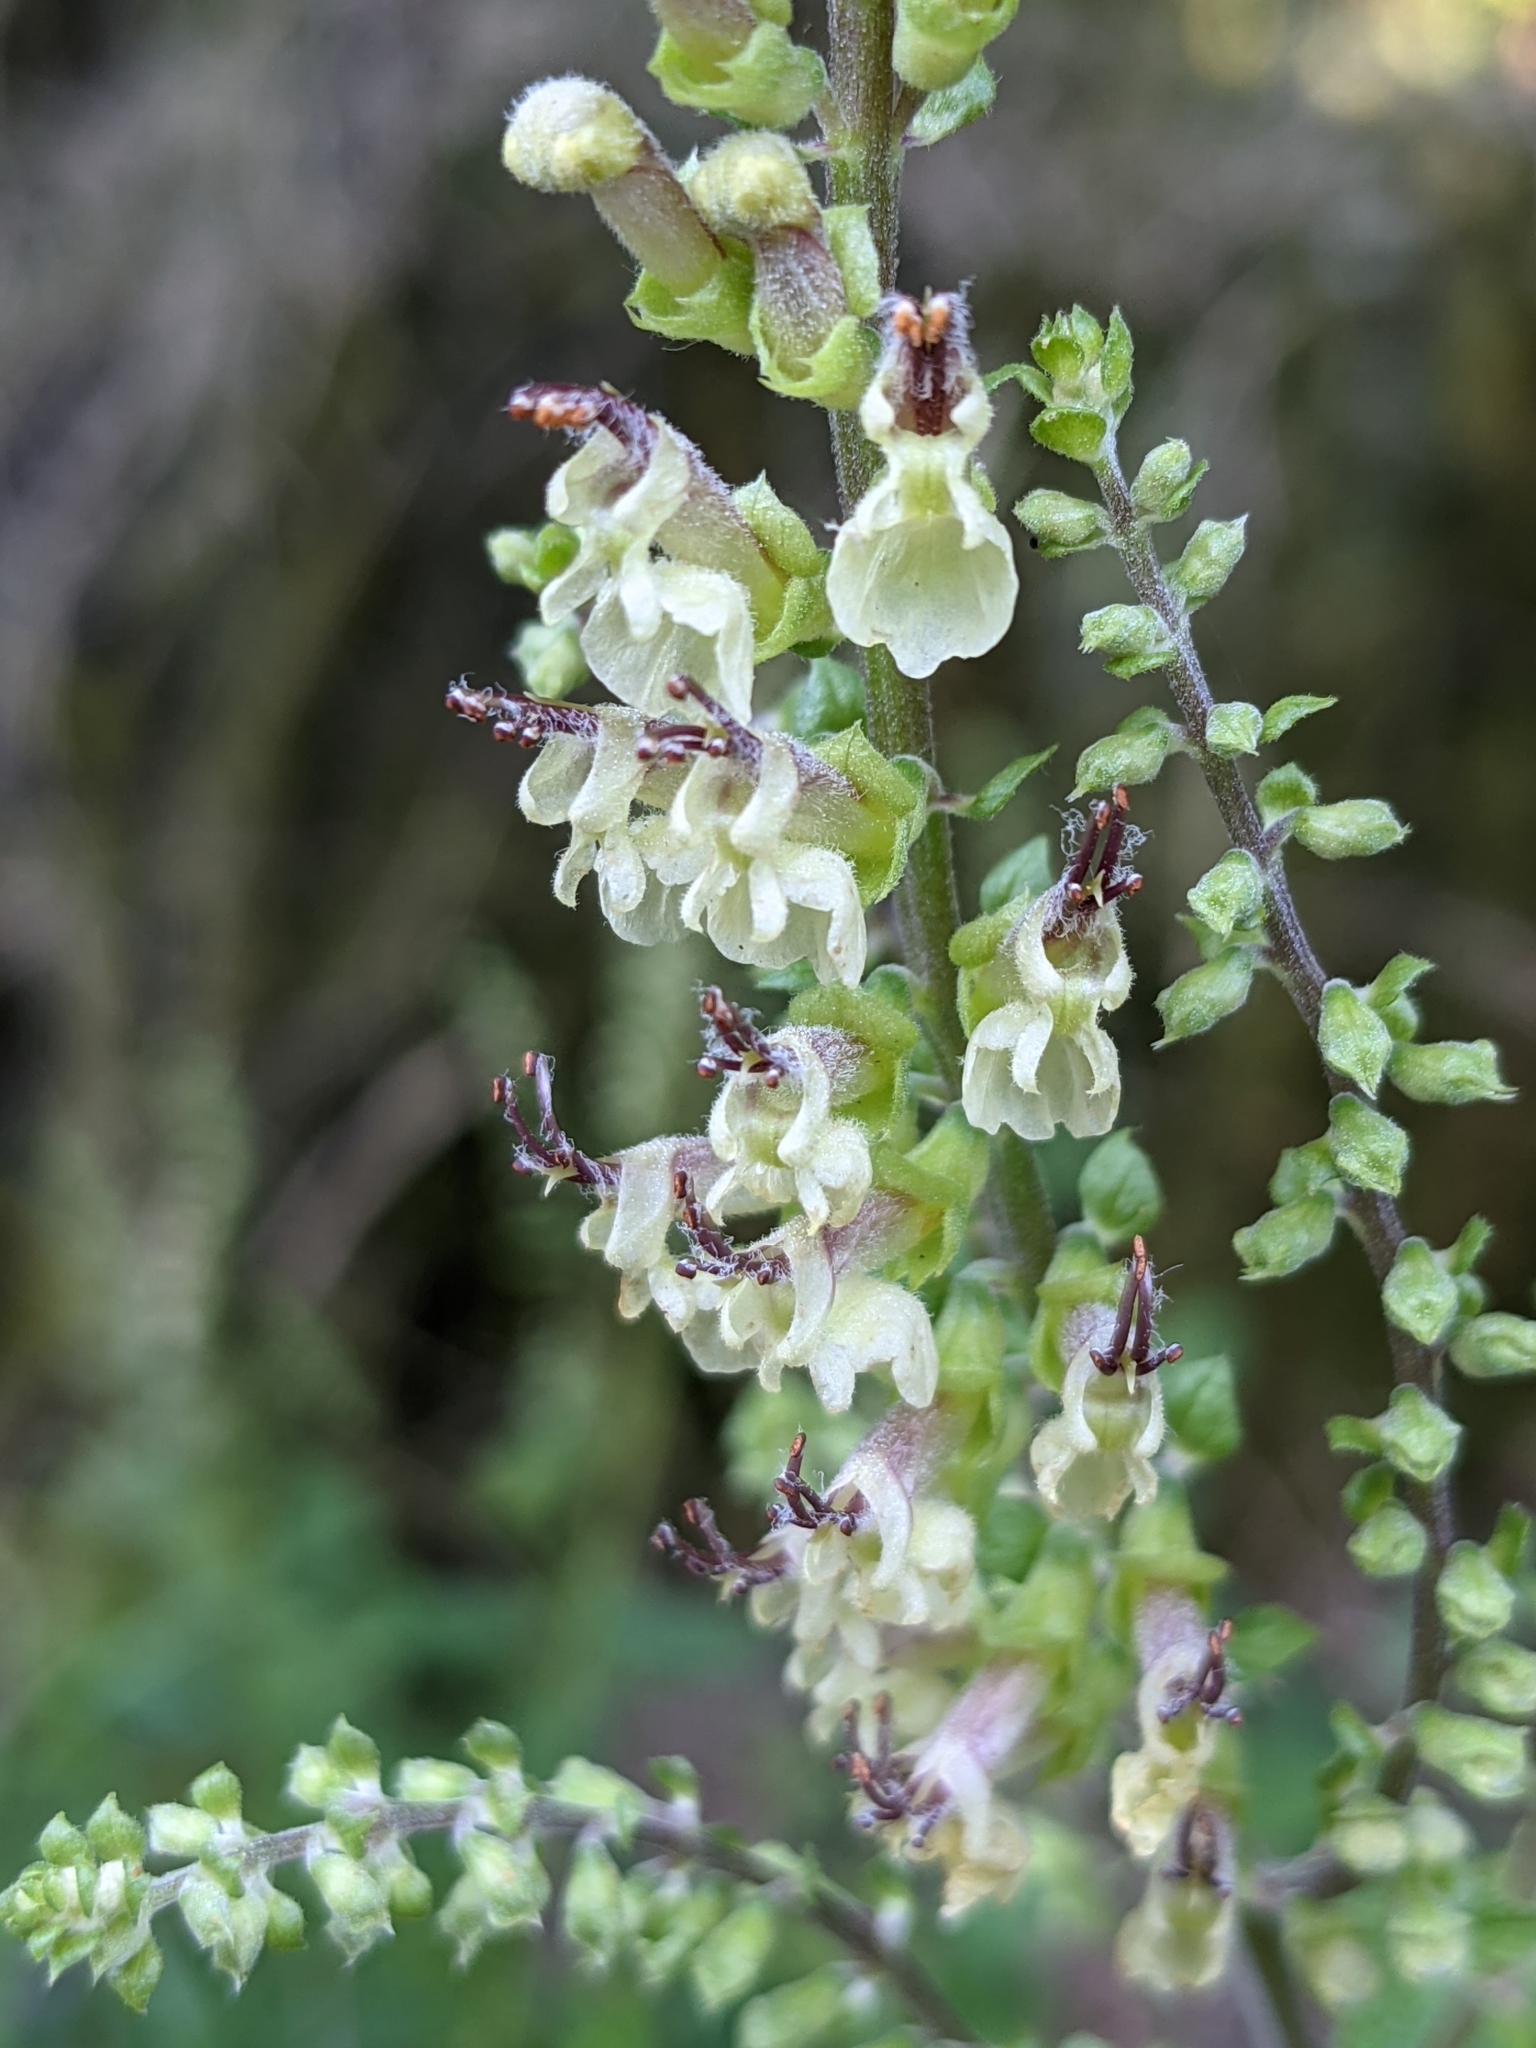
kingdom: Plantae
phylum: Tracheophyta
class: Magnoliopsida
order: Lamiales
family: Lamiaceae
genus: Teucrium
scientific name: Teucrium scorodonia
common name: Woodland germander
